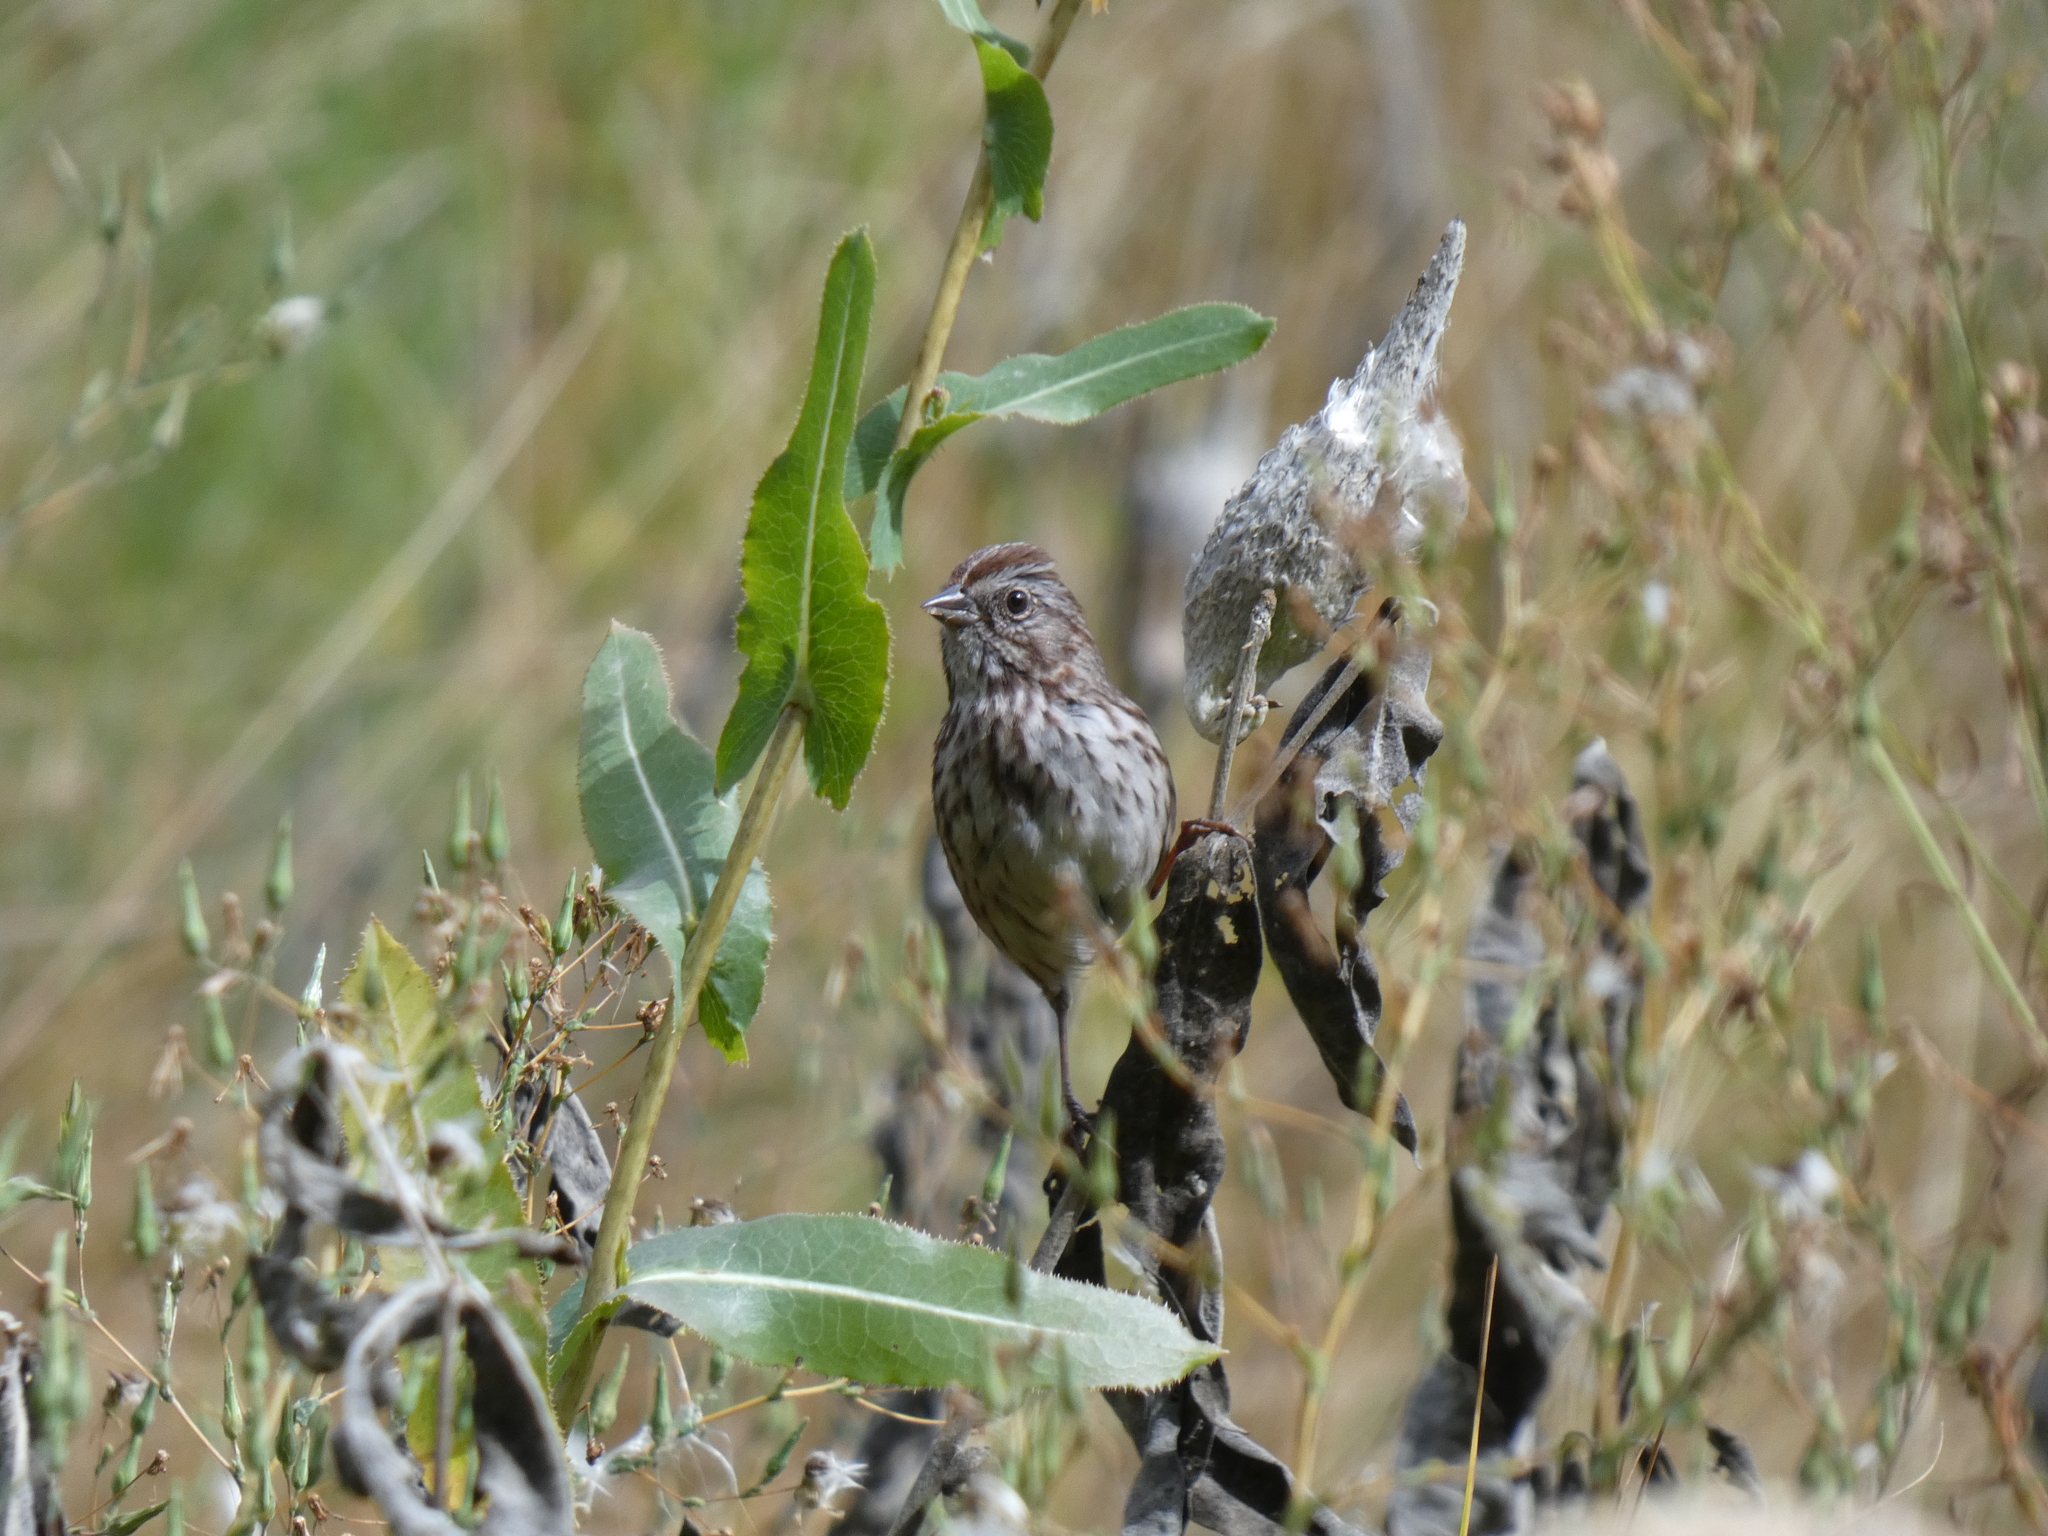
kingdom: Animalia
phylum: Chordata
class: Aves
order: Passeriformes
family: Passerellidae
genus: Melospiza
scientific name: Melospiza lincolnii
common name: Lincoln's sparrow
